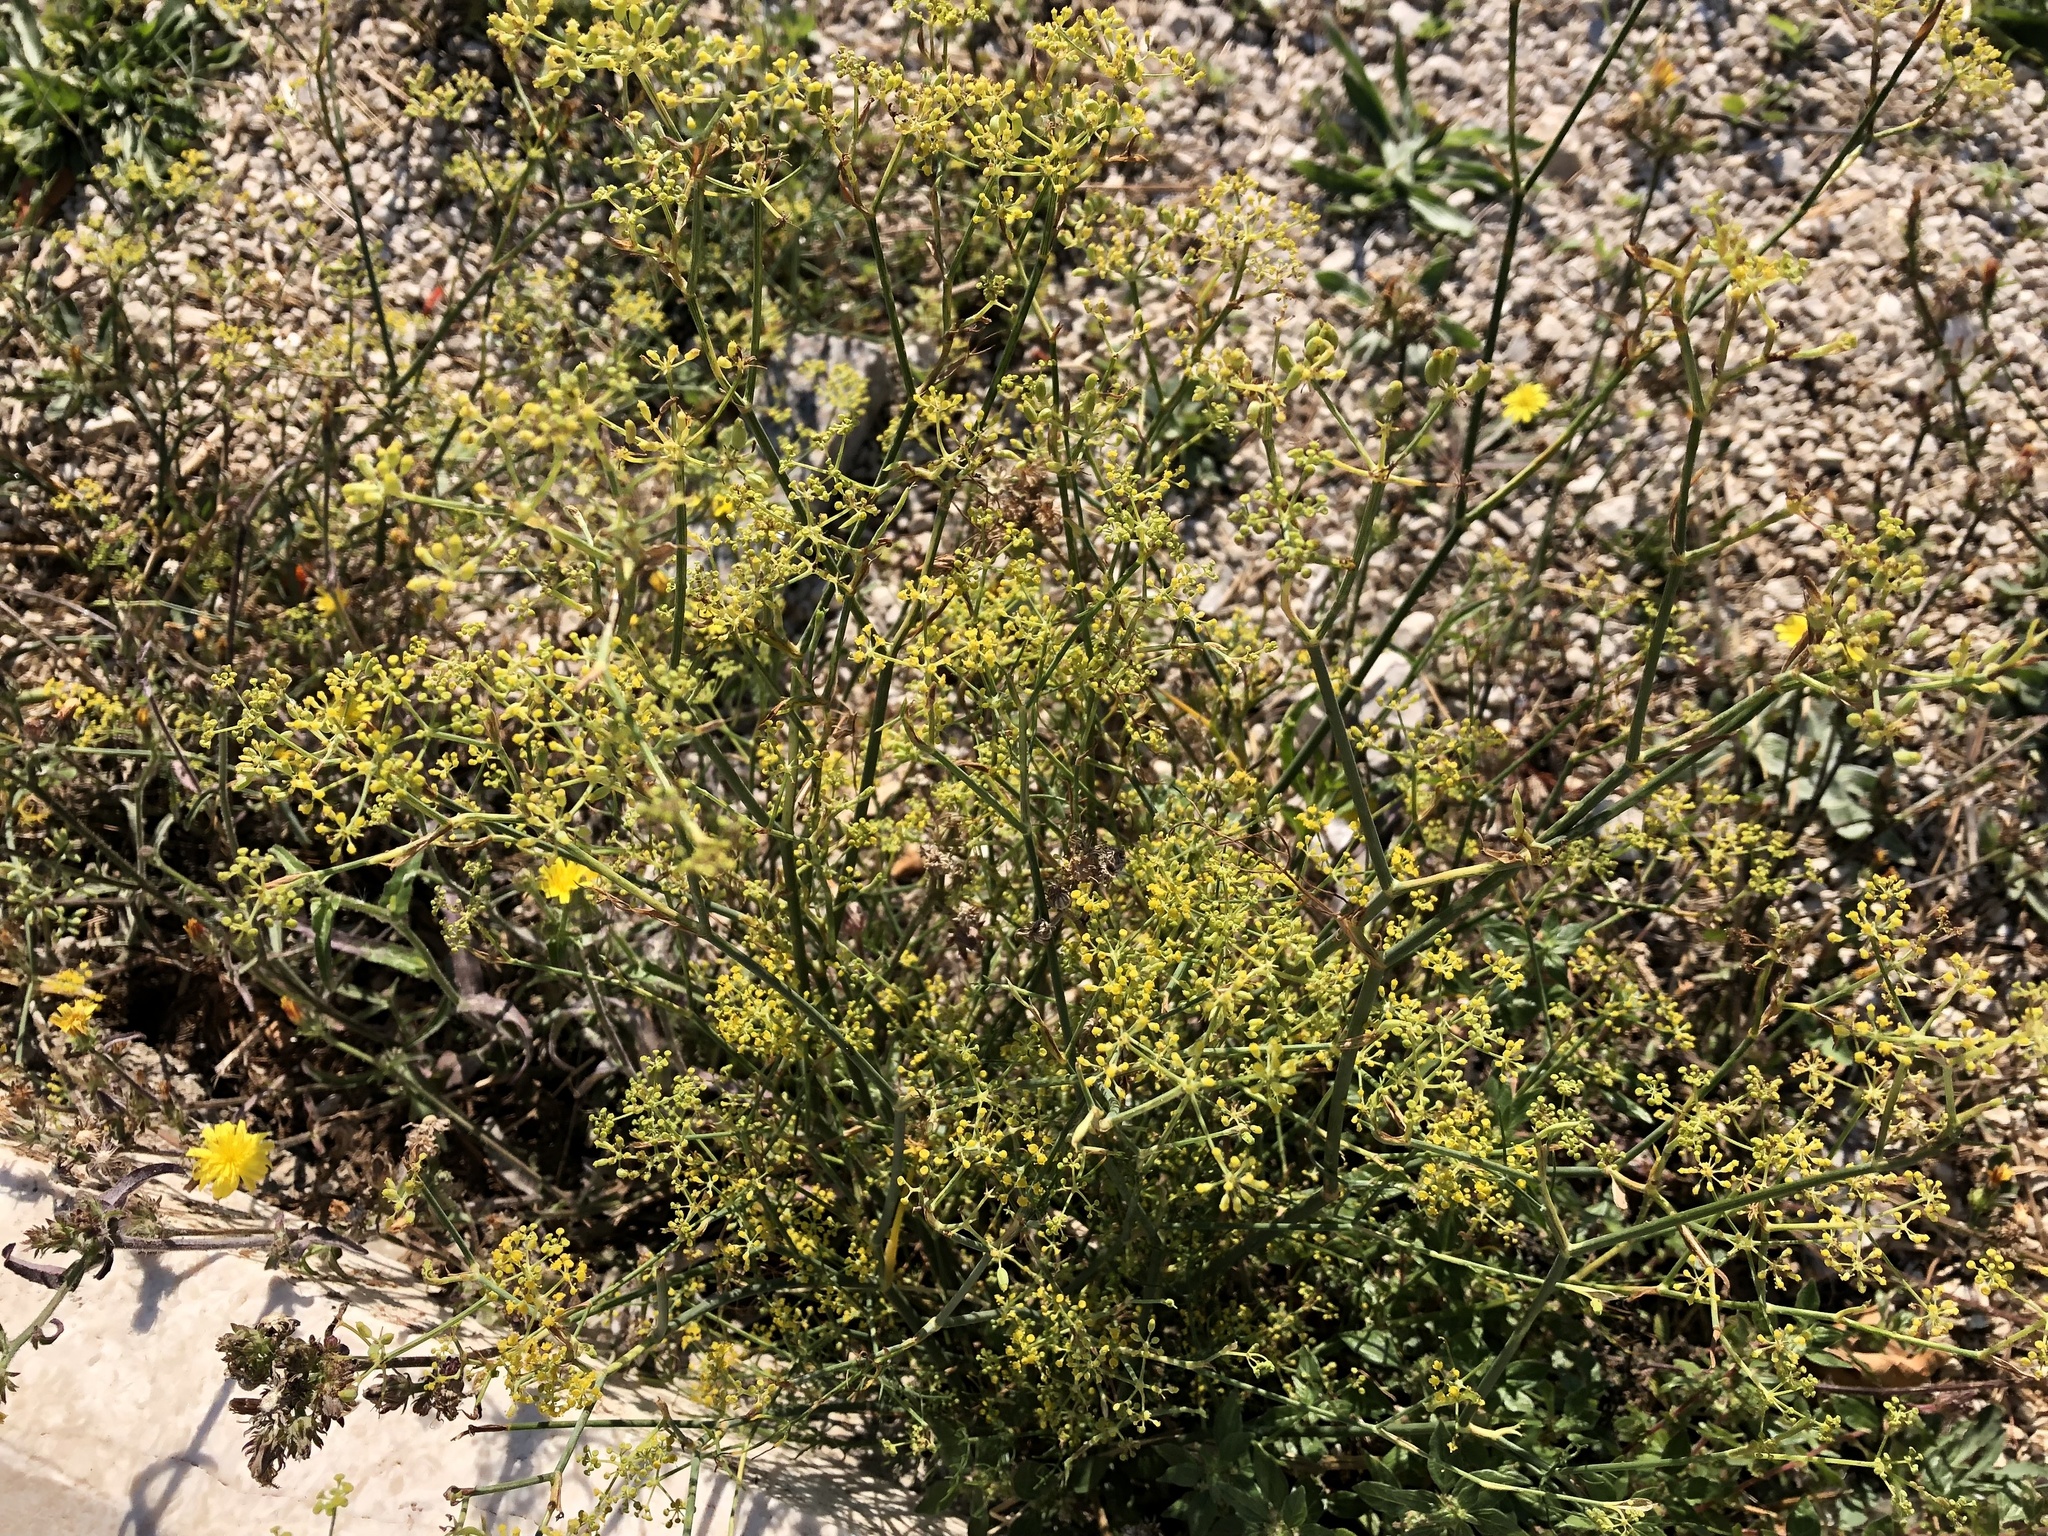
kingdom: Plantae
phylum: Tracheophyta
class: Magnoliopsida
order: Apiales
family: Apiaceae
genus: Foeniculum
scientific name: Foeniculum vulgare
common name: Fennel
